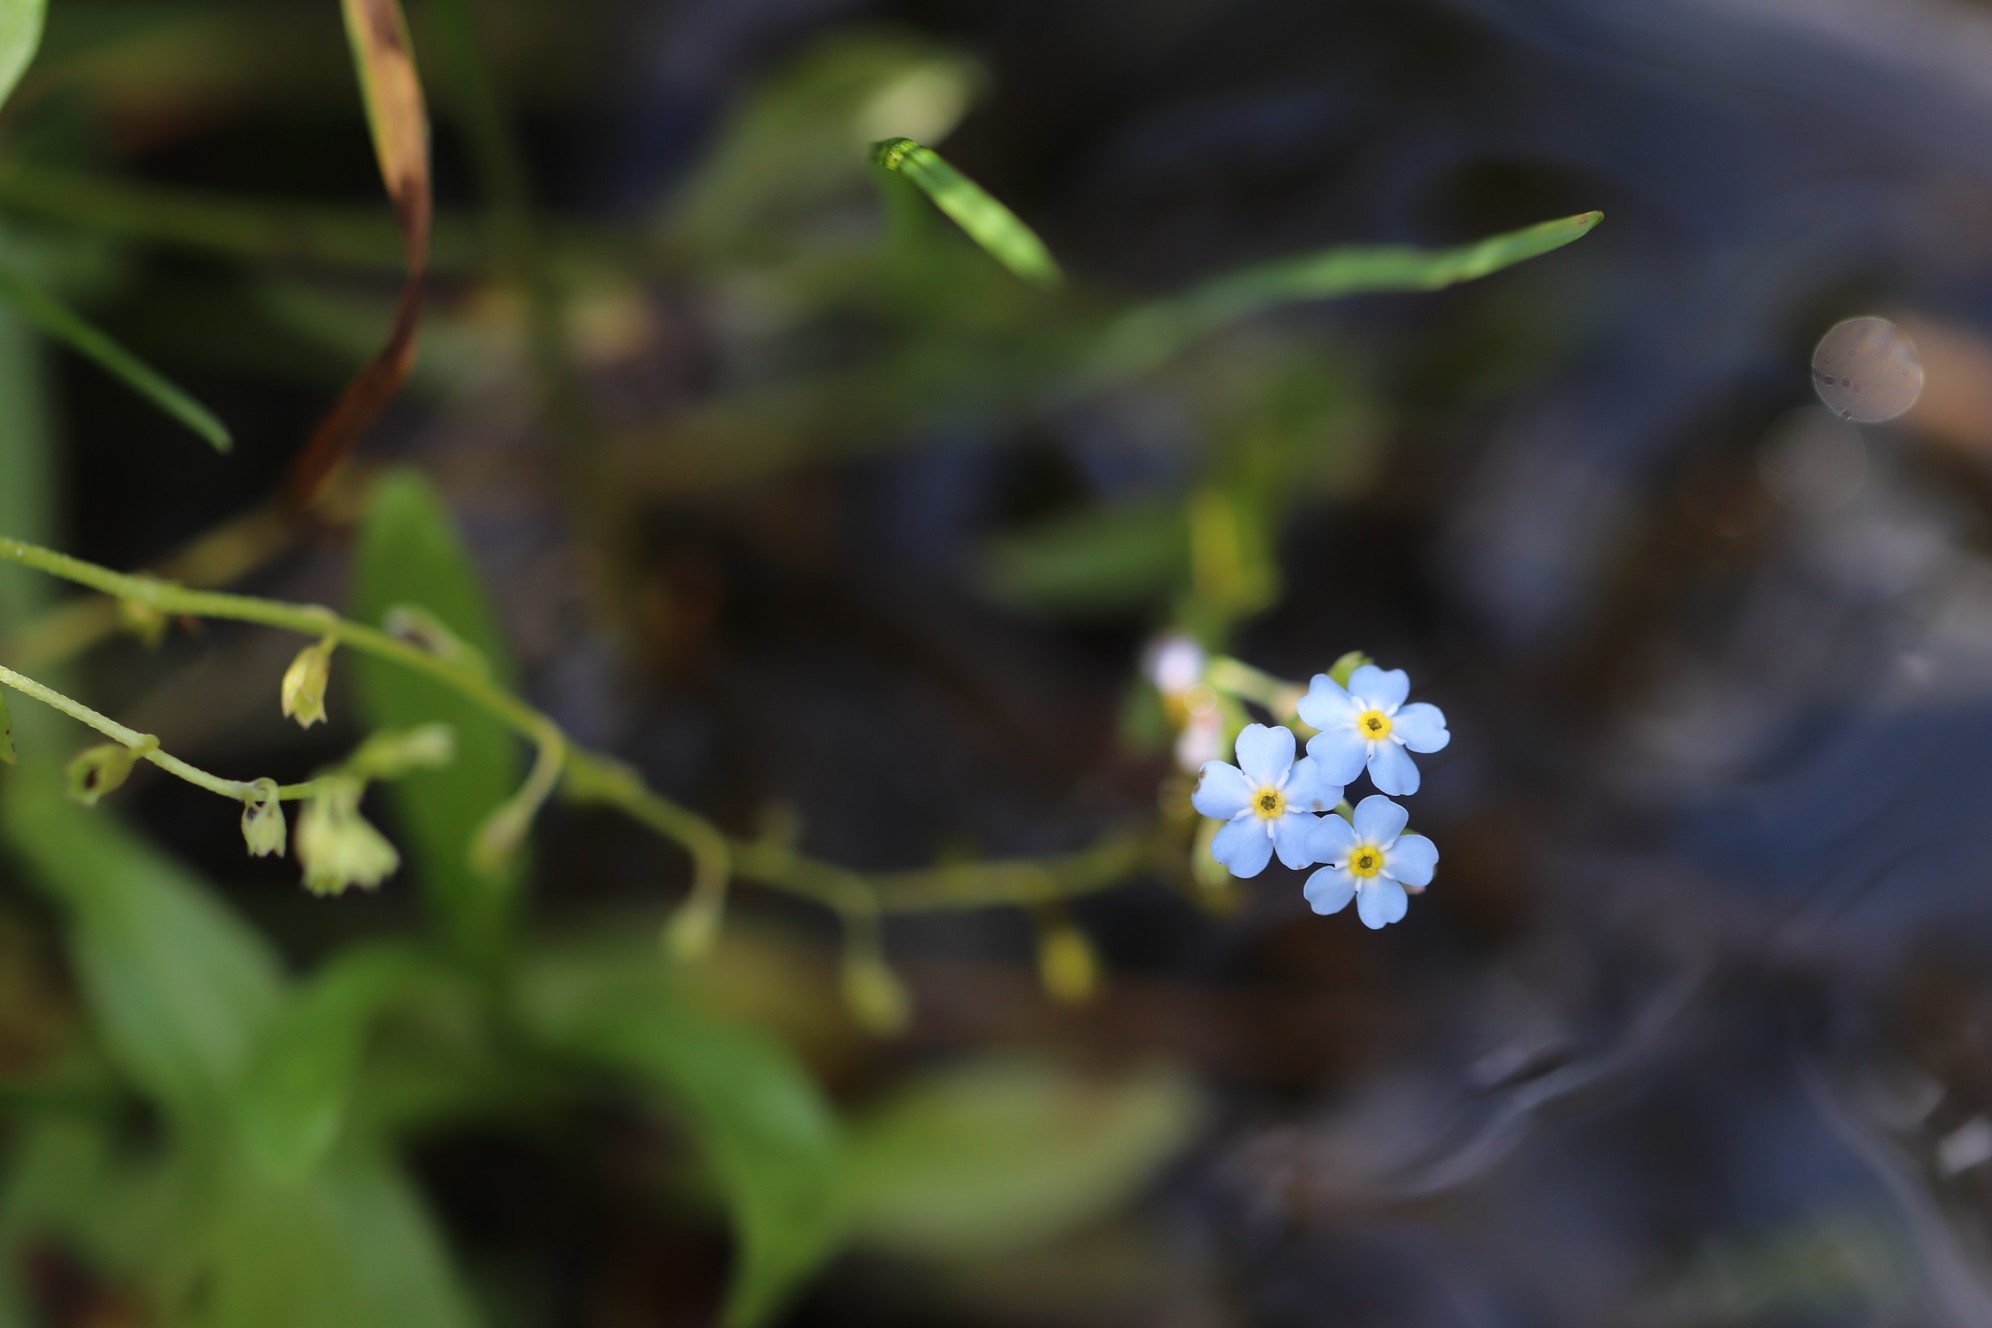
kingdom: Plantae
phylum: Tracheophyta
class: Magnoliopsida
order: Boraginales
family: Boraginaceae
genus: Myosotis
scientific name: Myosotis scorpioides
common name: Water forget-me-not
